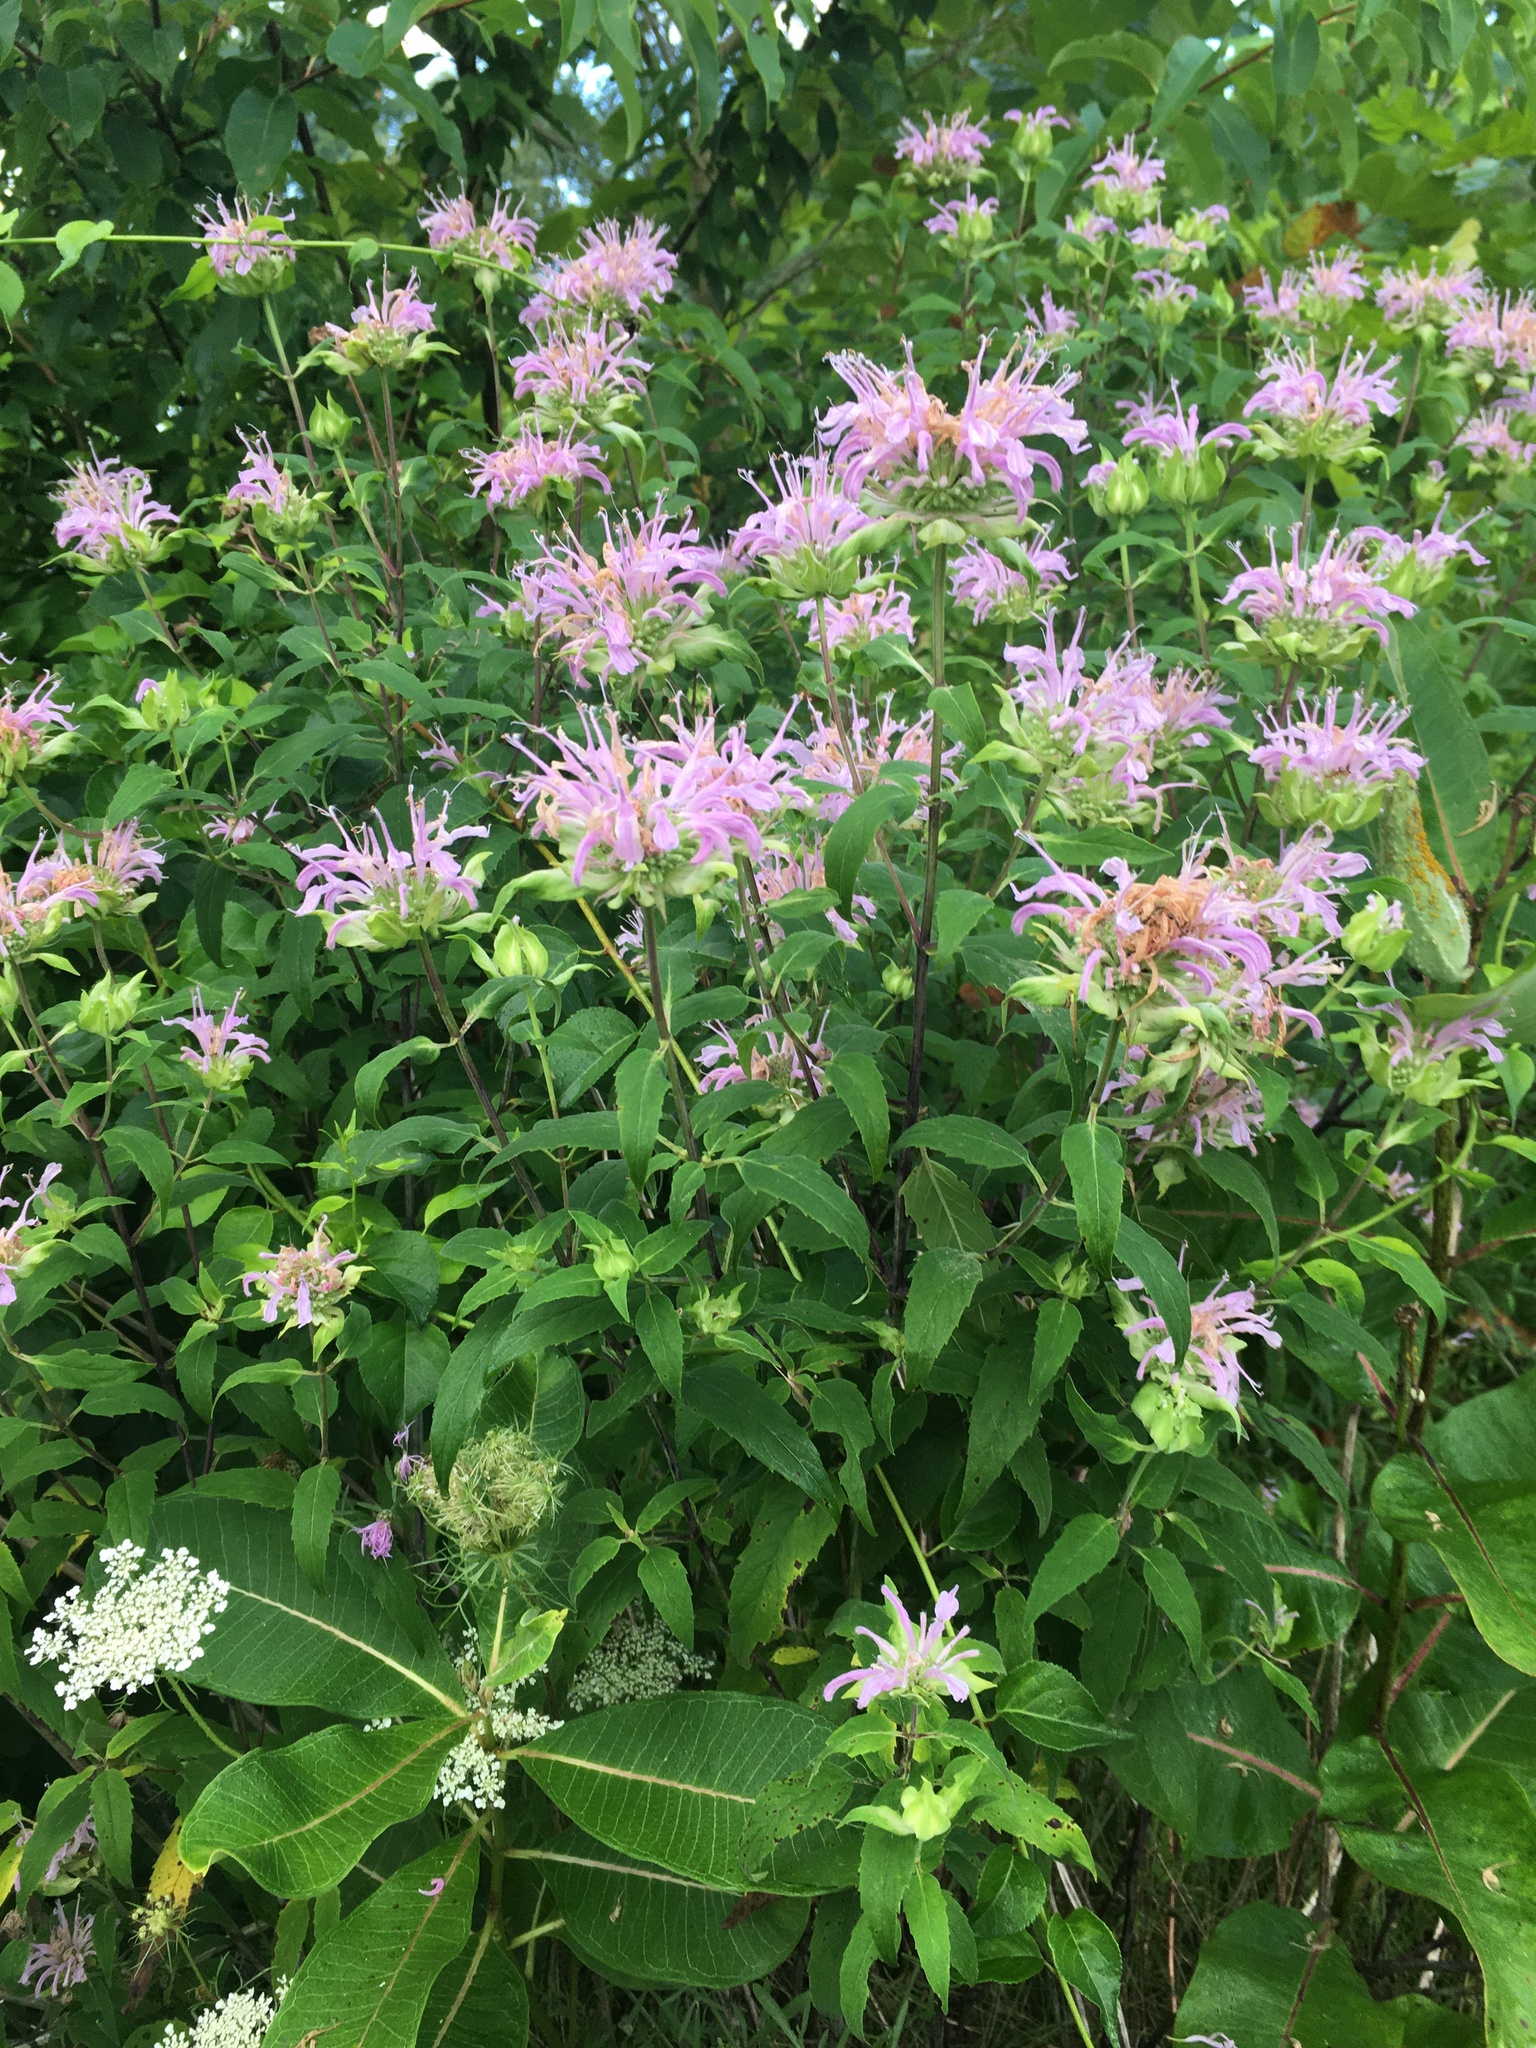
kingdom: Plantae
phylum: Tracheophyta
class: Magnoliopsida
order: Lamiales
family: Lamiaceae
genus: Monarda
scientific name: Monarda fistulosa
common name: Purple beebalm
